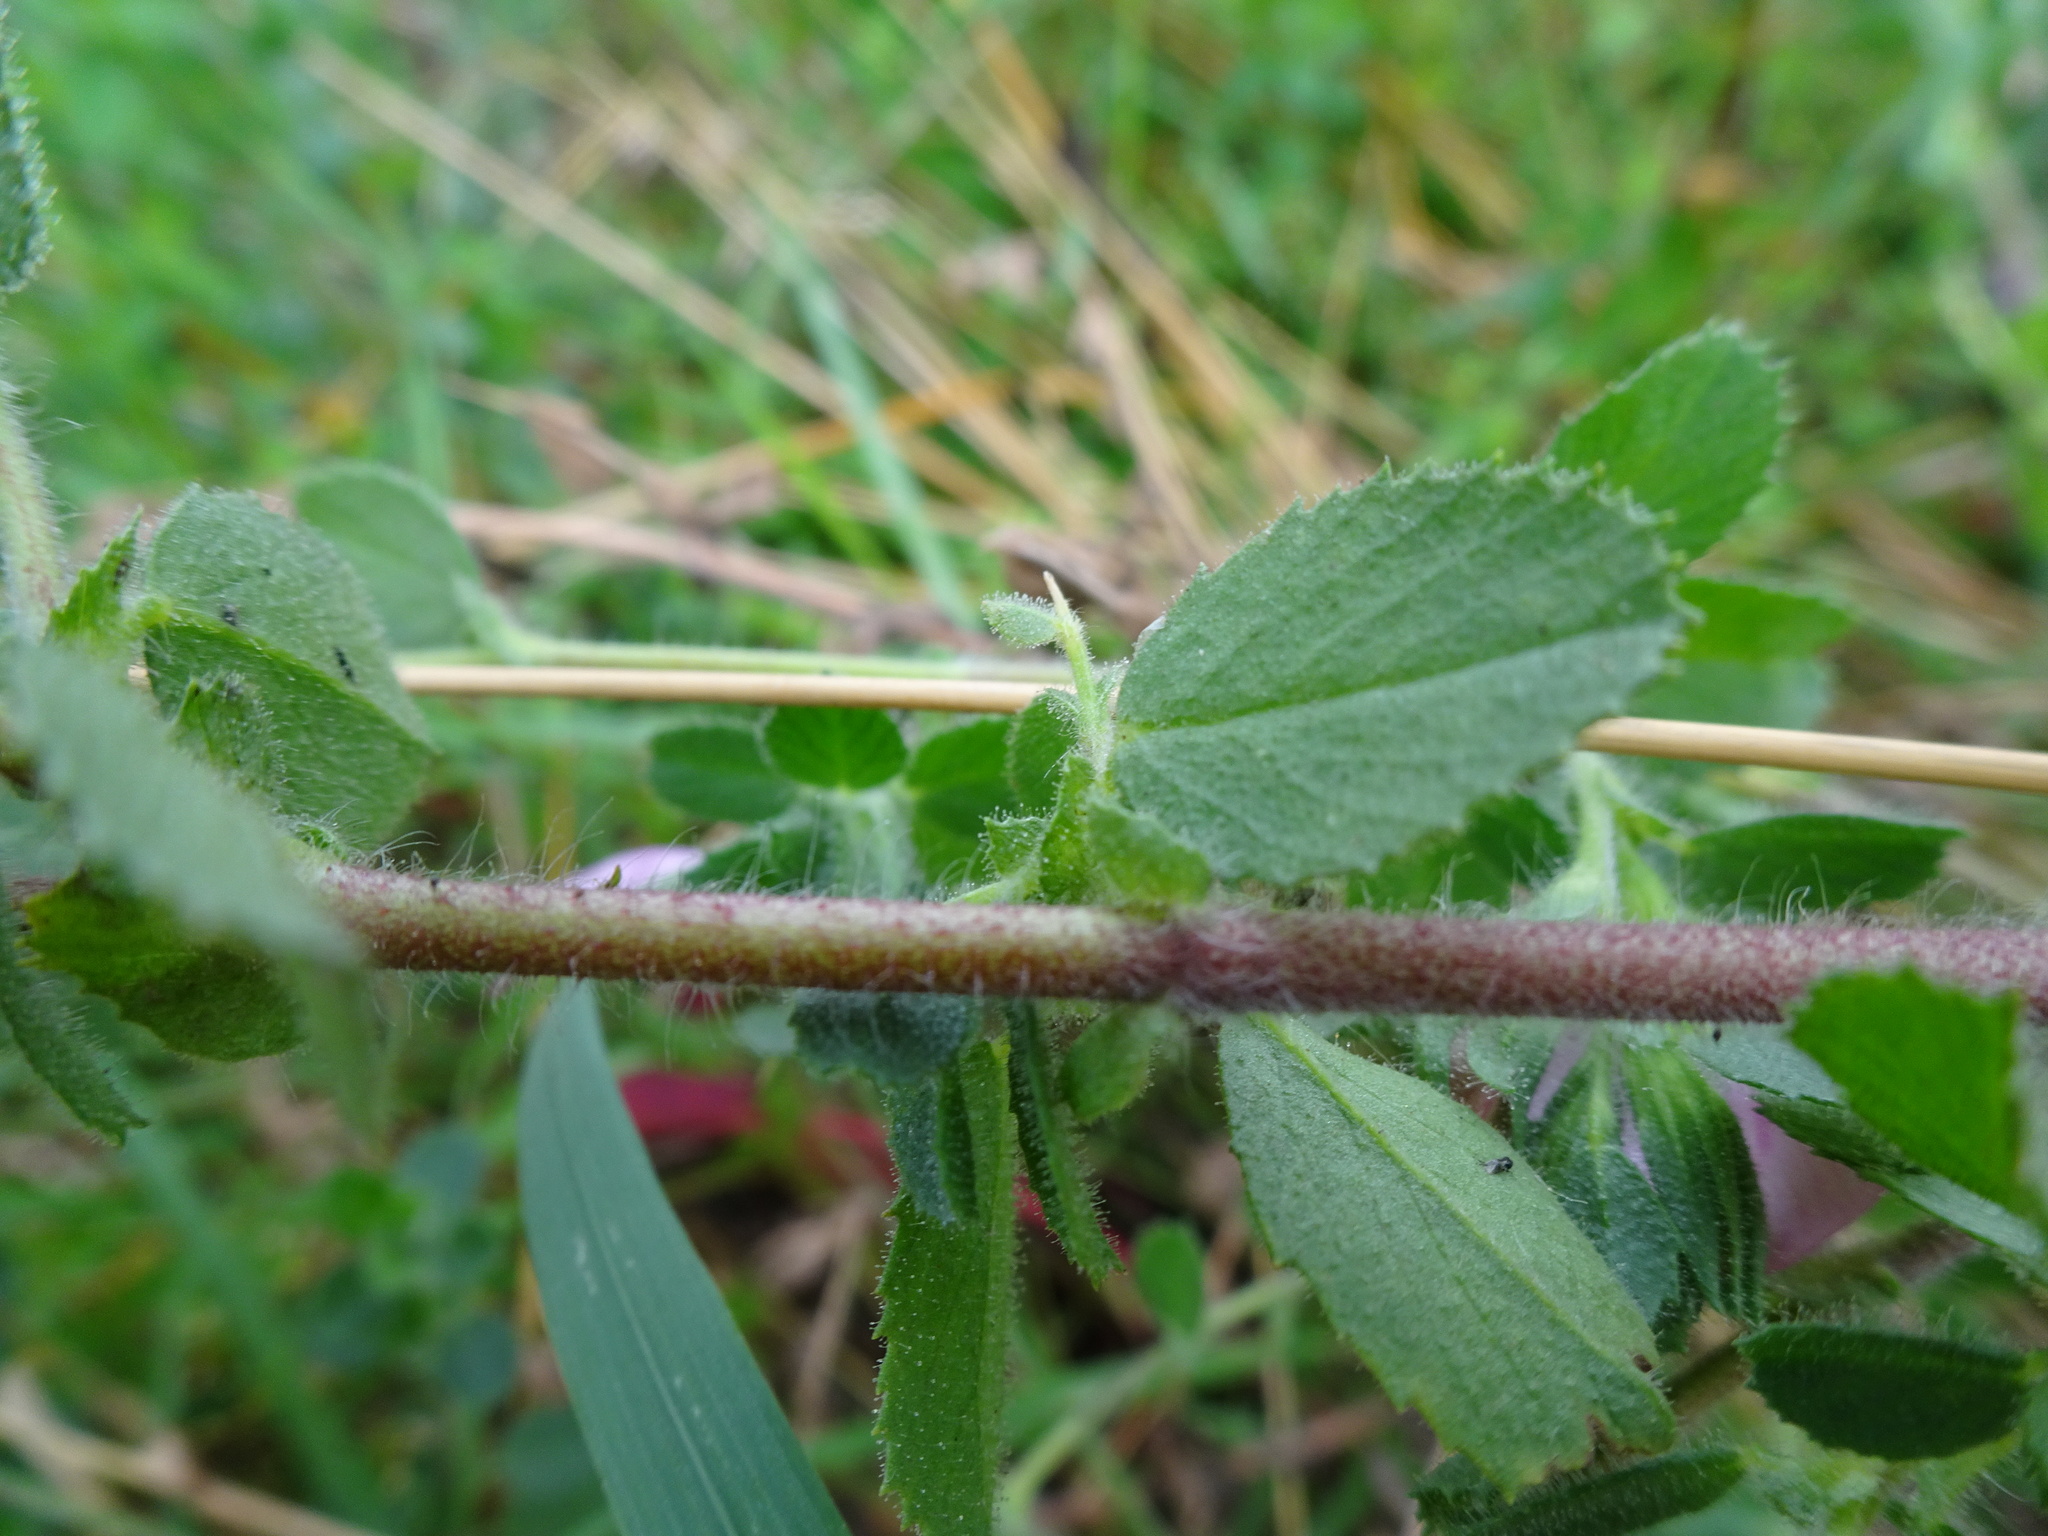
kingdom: Plantae
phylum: Tracheophyta
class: Magnoliopsida
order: Fabales
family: Fabaceae
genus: Ononis
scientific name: Ononis spinosa
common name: Spiny restharrow
